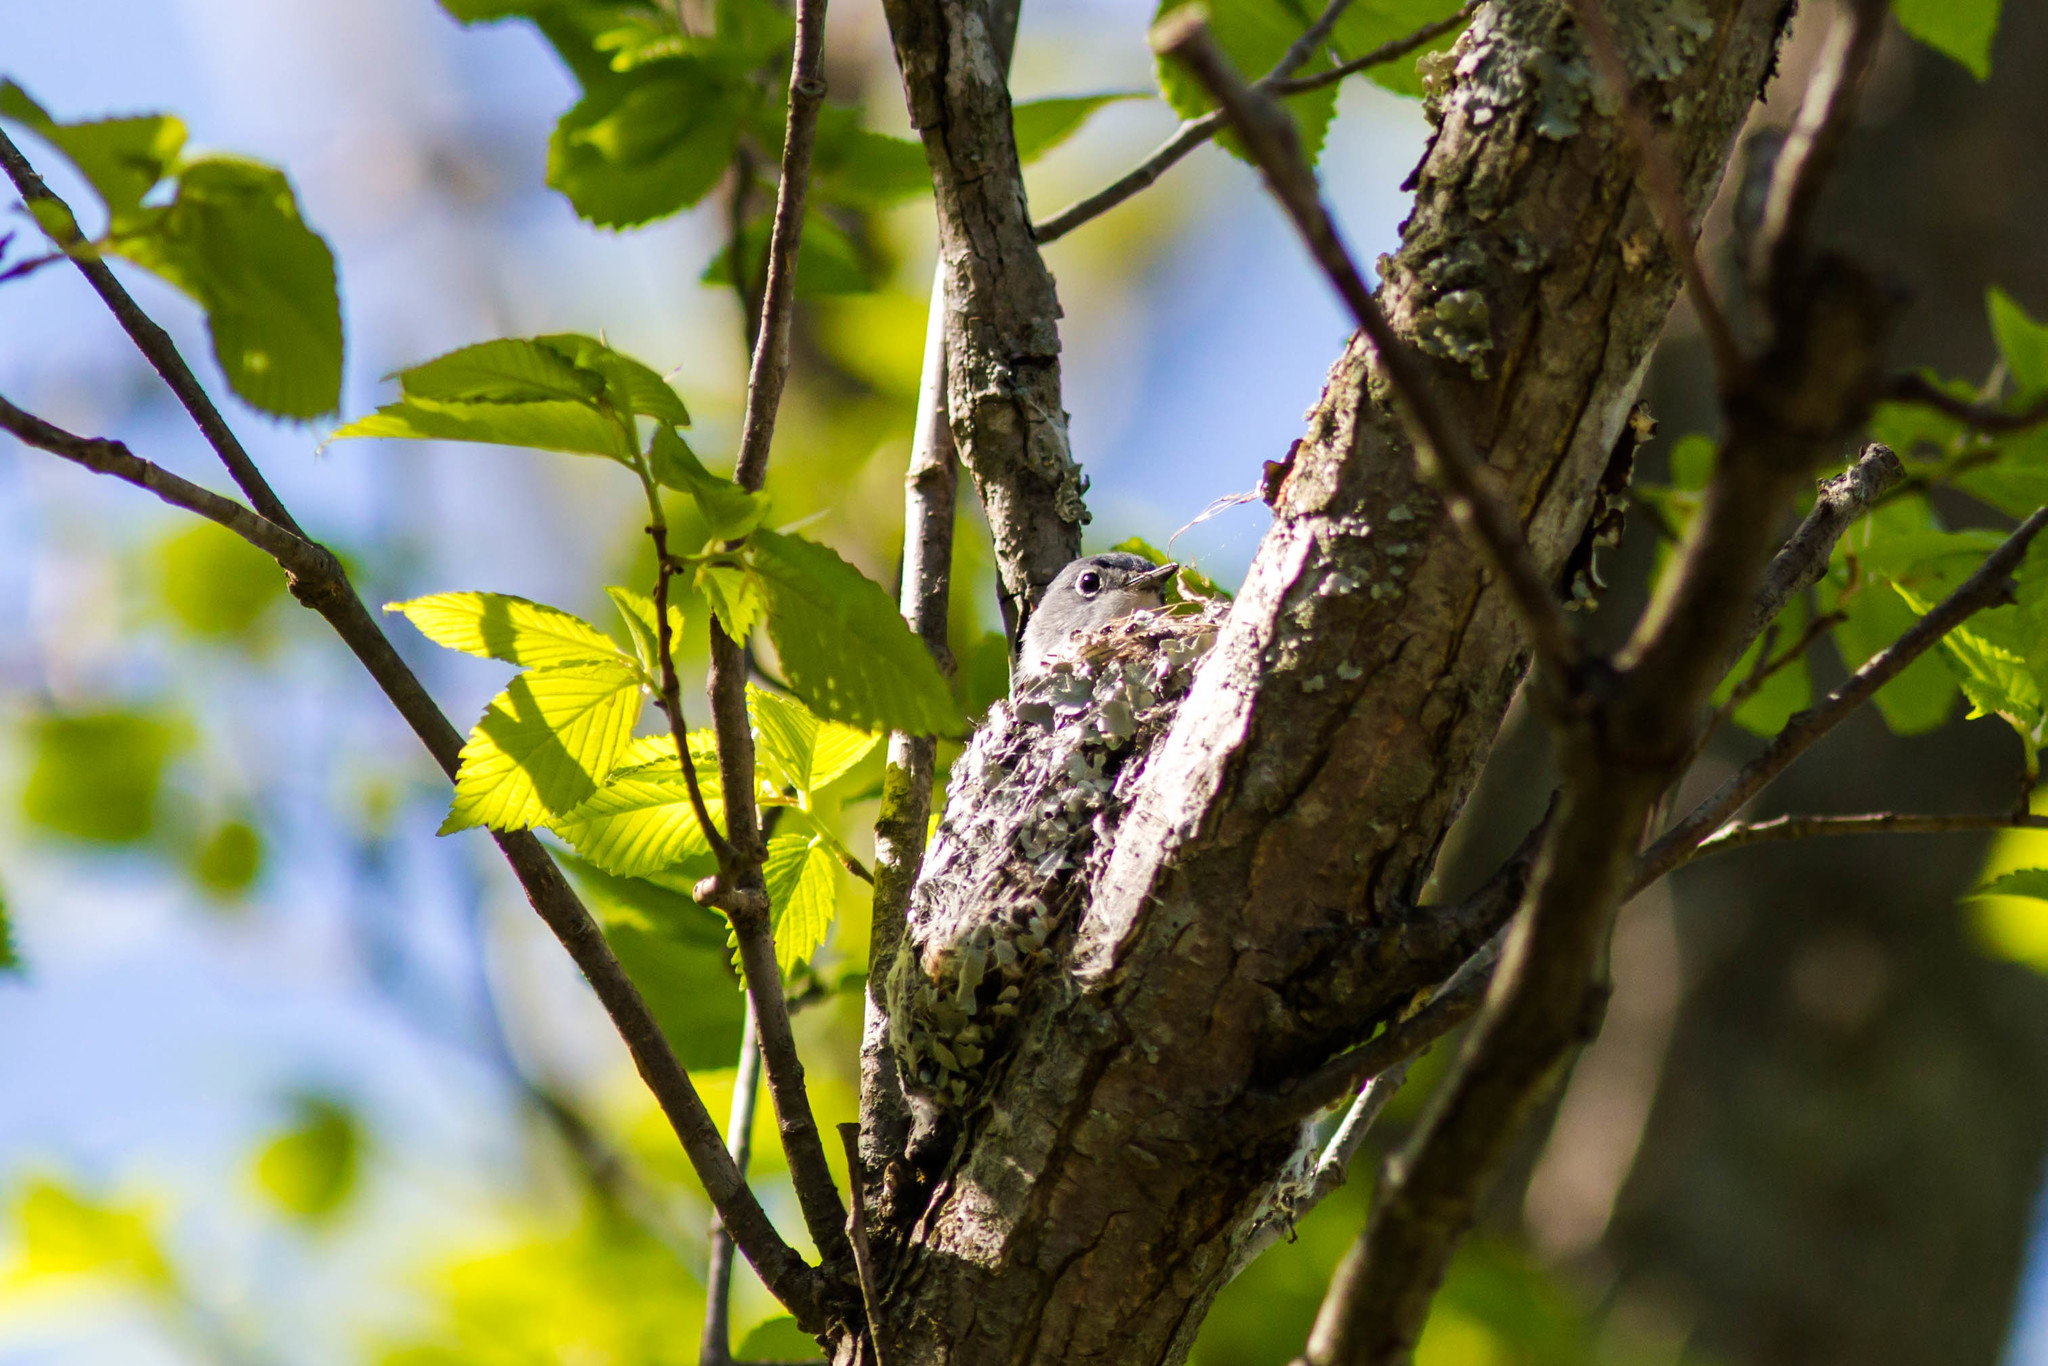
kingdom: Animalia
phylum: Chordata
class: Aves
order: Passeriformes
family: Polioptilidae
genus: Polioptila
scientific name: Polioptila caerulea
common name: Blue-gray gnatcatcher
